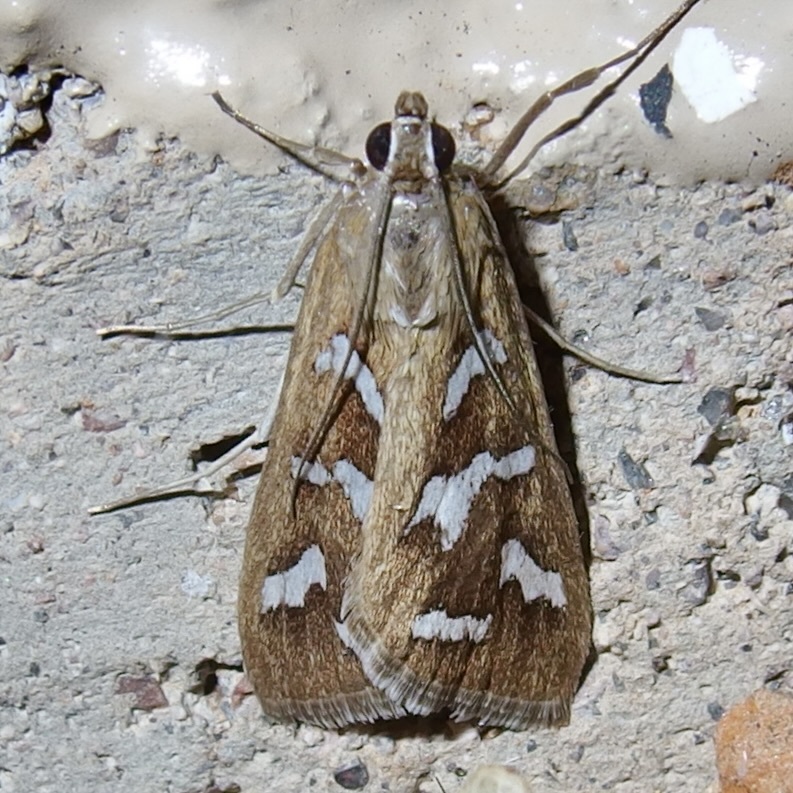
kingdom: Animalia
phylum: Arthropoda
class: Insecta
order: Lepidoptera
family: Crambidae
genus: Diastictis
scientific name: Diastictis fracturalis
